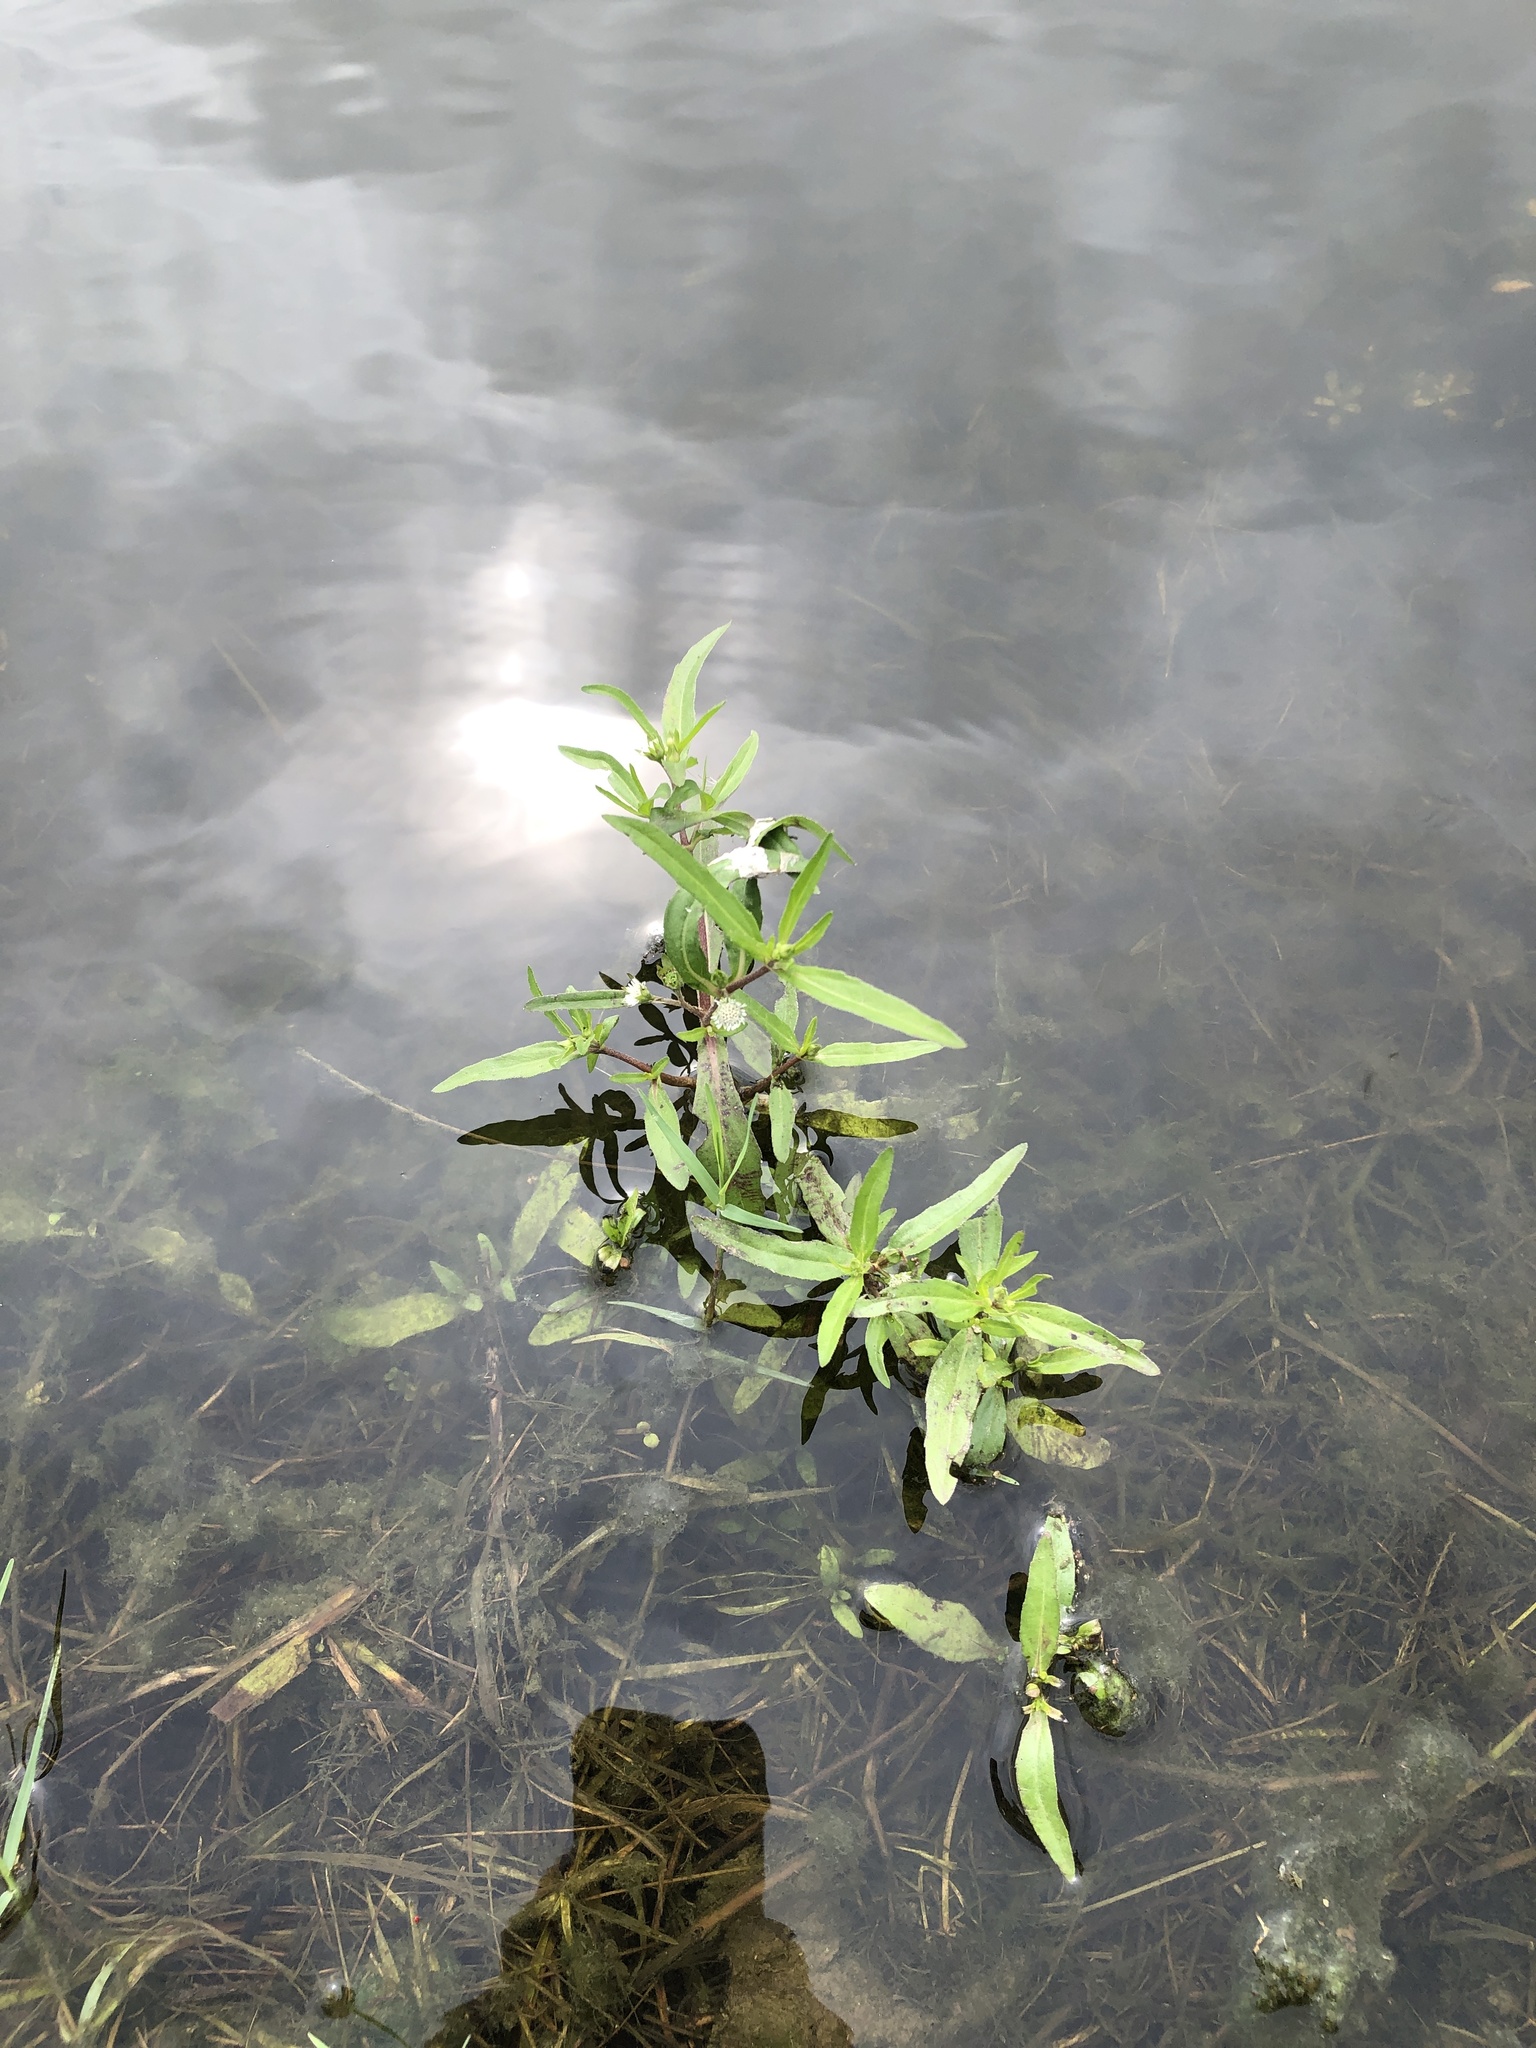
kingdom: Plantae
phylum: Tracheophyta
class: Magnoliopsida
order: Asterales
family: Asteraceae
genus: Eclipta
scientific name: Eclipta prostrata
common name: False daisy
